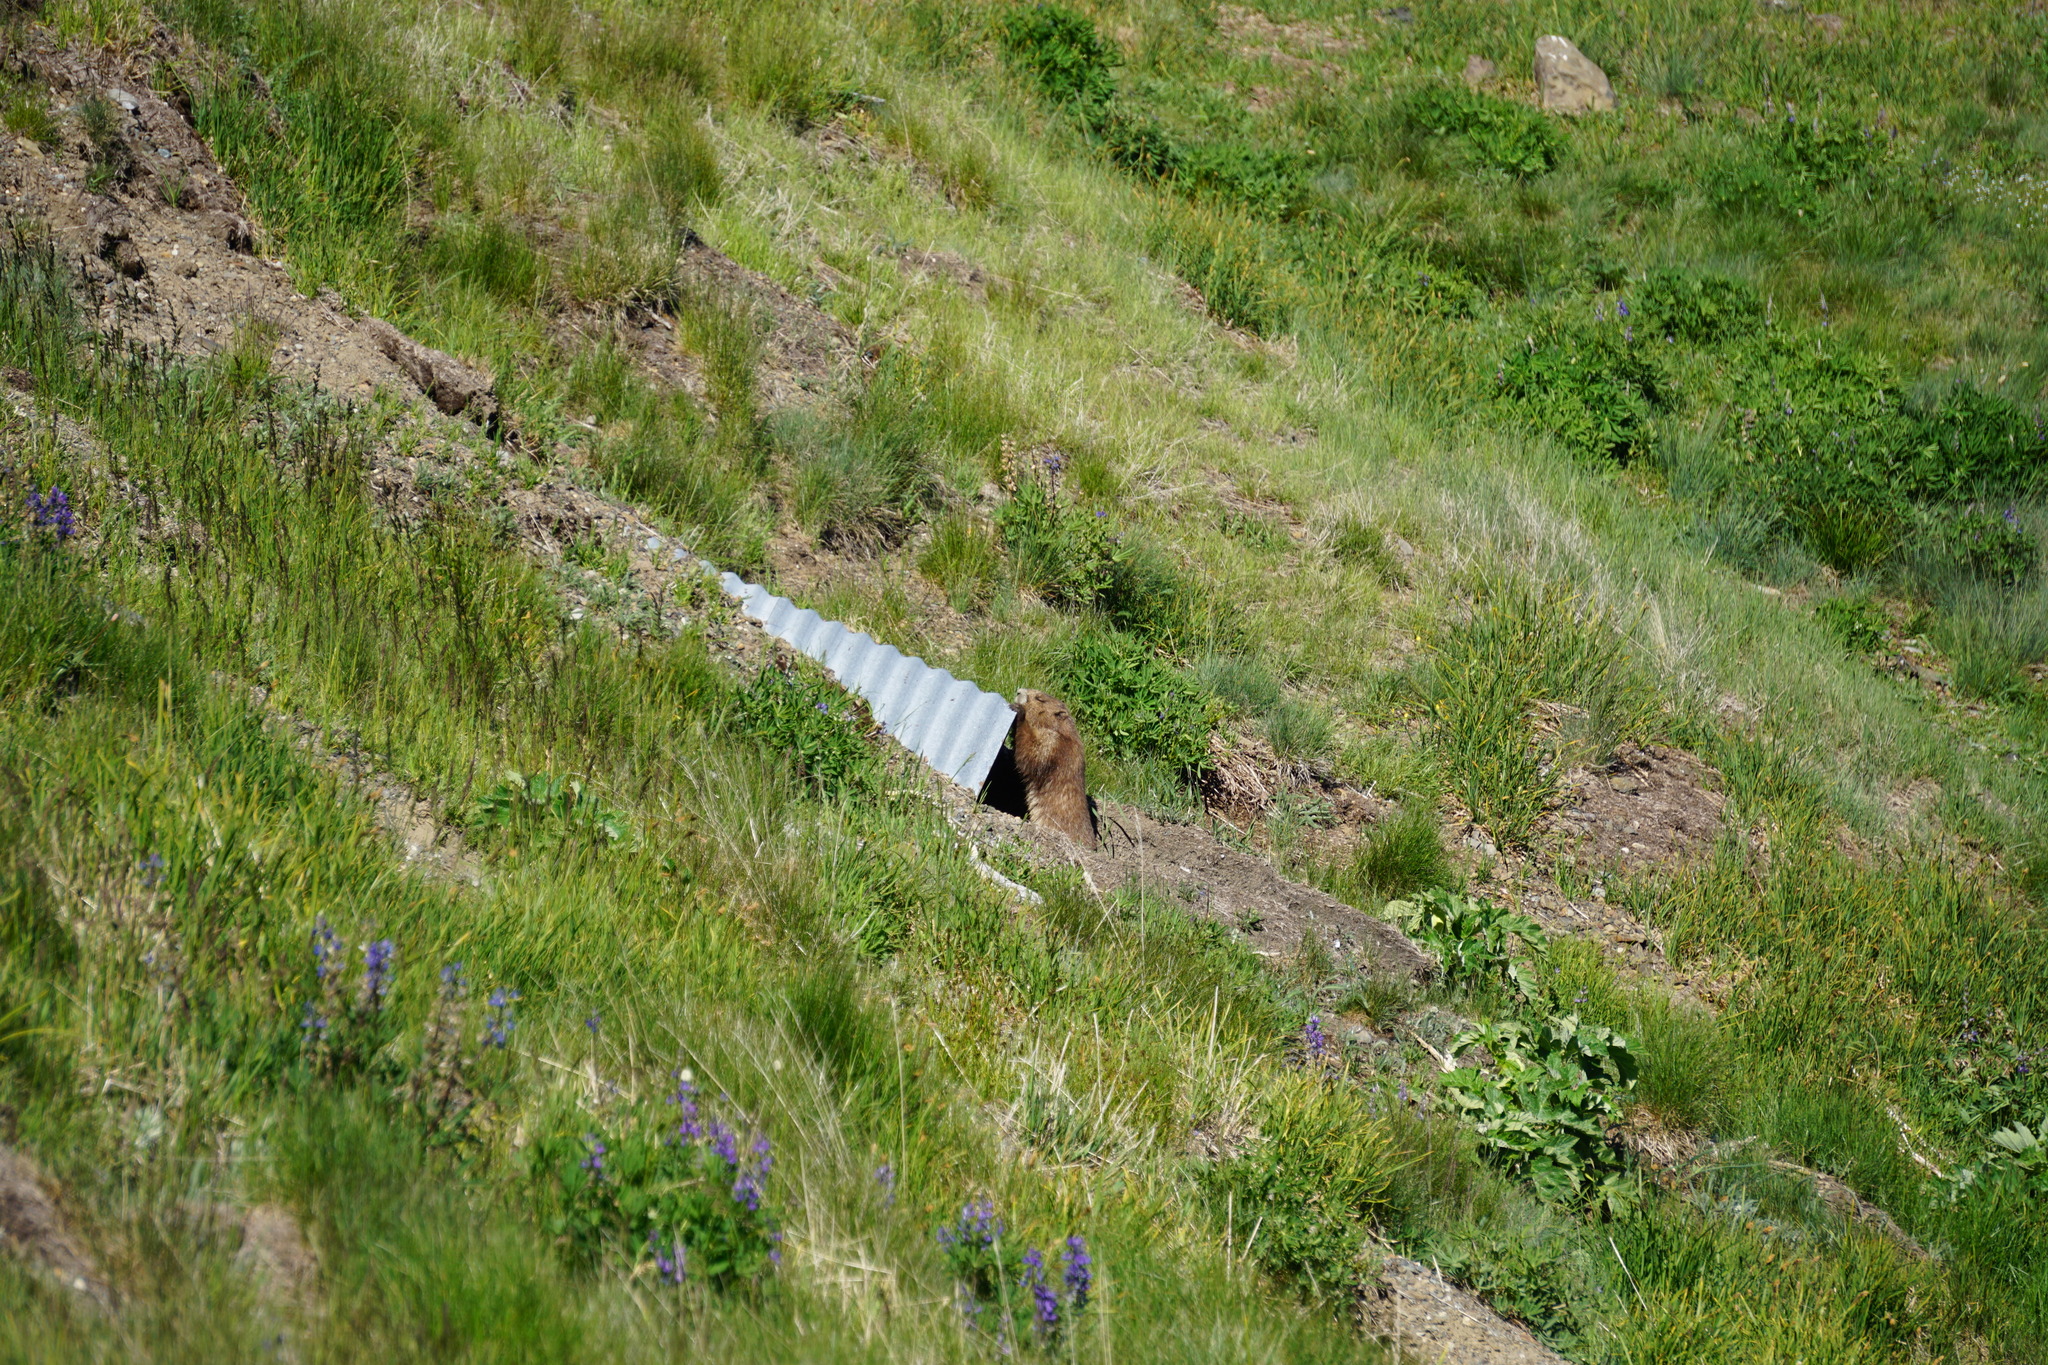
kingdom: Animalia
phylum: Chordata
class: Mammalia
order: Rodentia
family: Sciuridae
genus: Marmota
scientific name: Marmota olympus
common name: Olympic marmot
